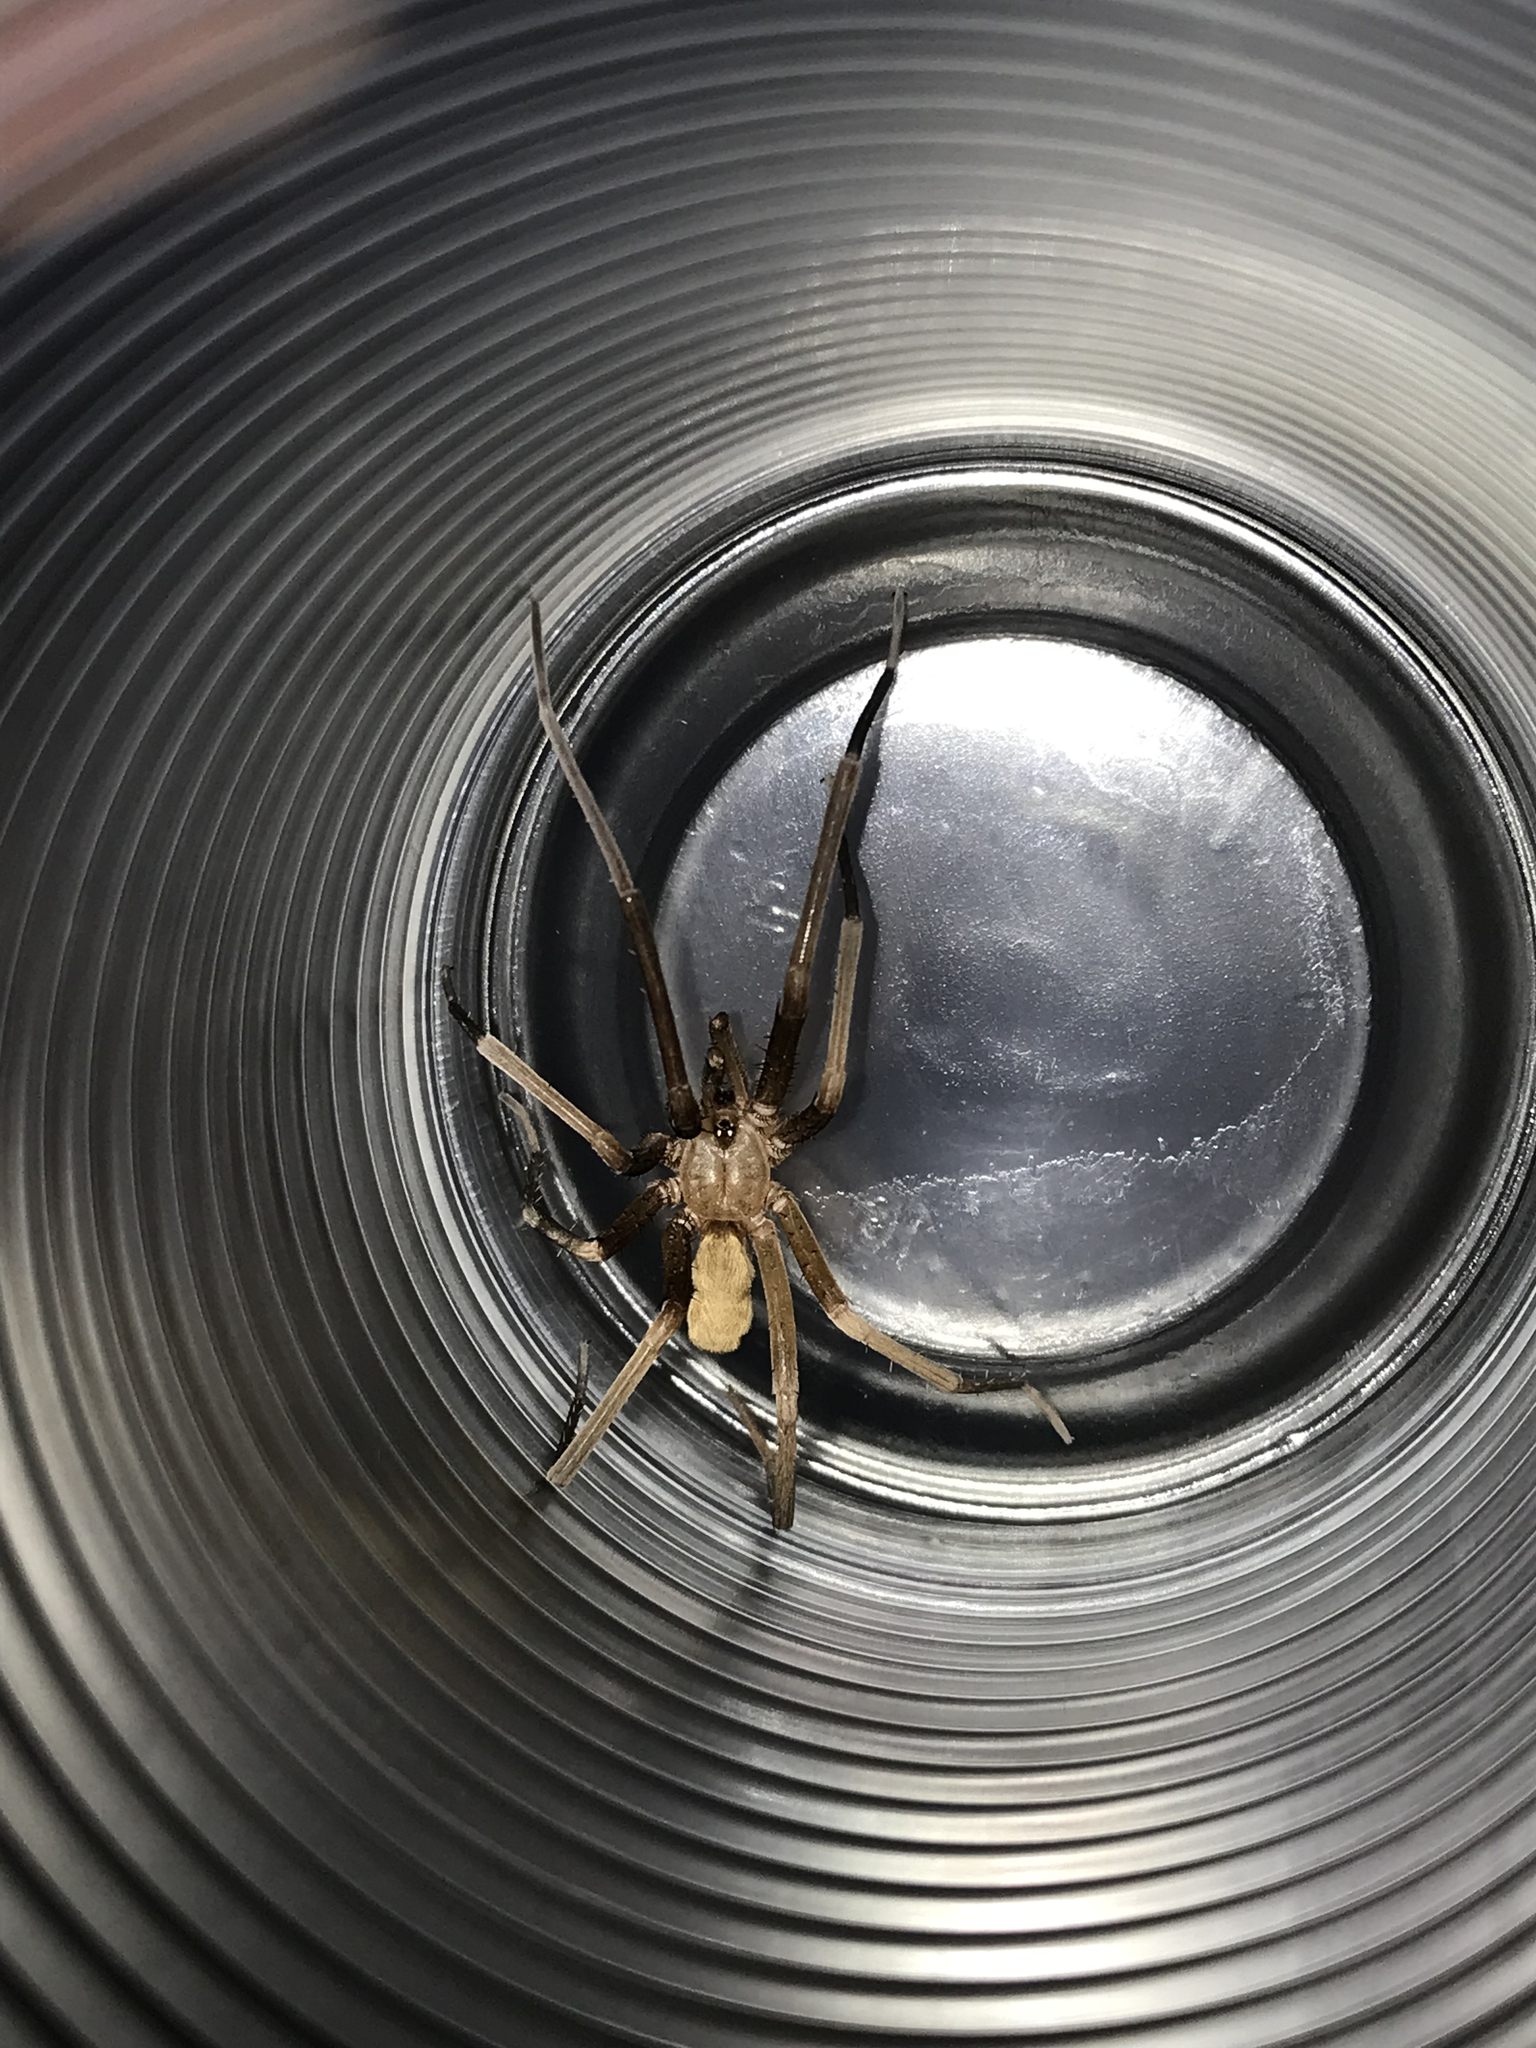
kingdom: Animalia
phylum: Arthropoda
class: Arachnida
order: Araneae
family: Filistatidae
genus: Kukulcania
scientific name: Kukulcania hibernalis
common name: Crevice weaver
